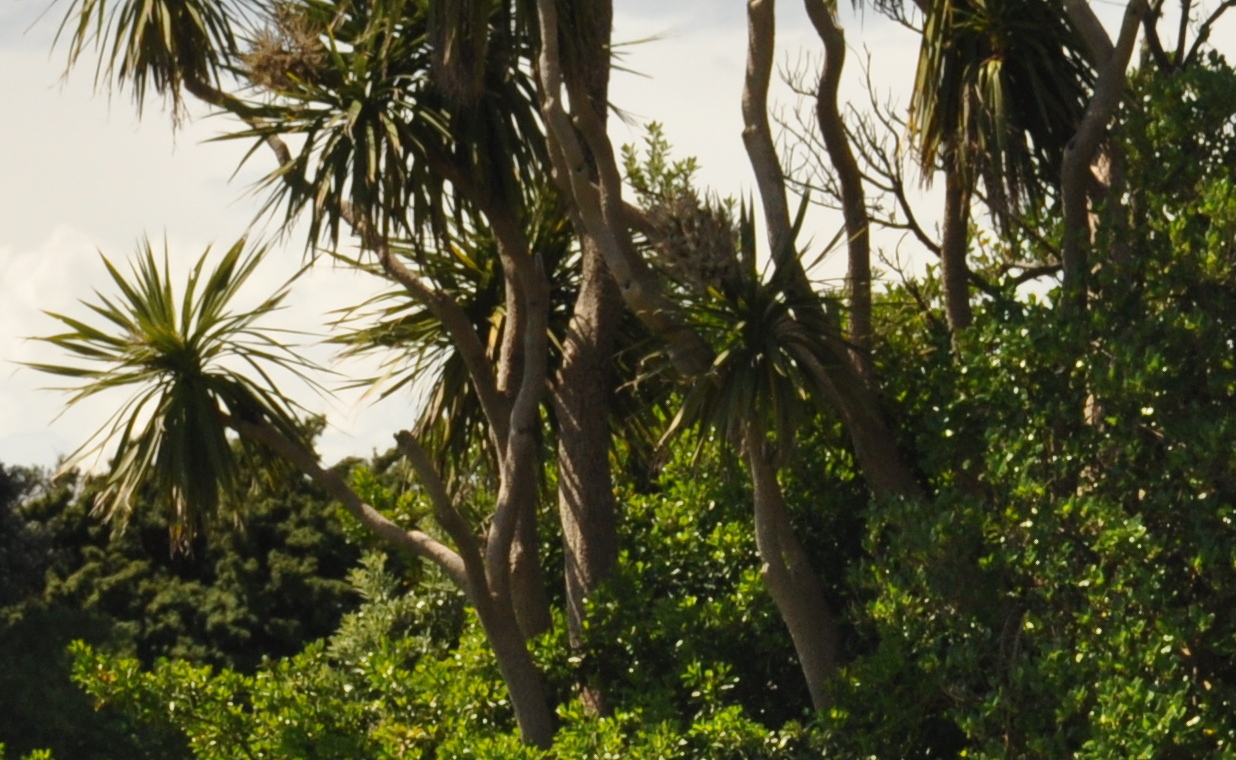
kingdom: Plantae
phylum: Tracheophyta
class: Liliopsida
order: Asparagales
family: Asparagaceae
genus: Cordyline
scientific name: Cordyline australis
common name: Cabbage-palm
